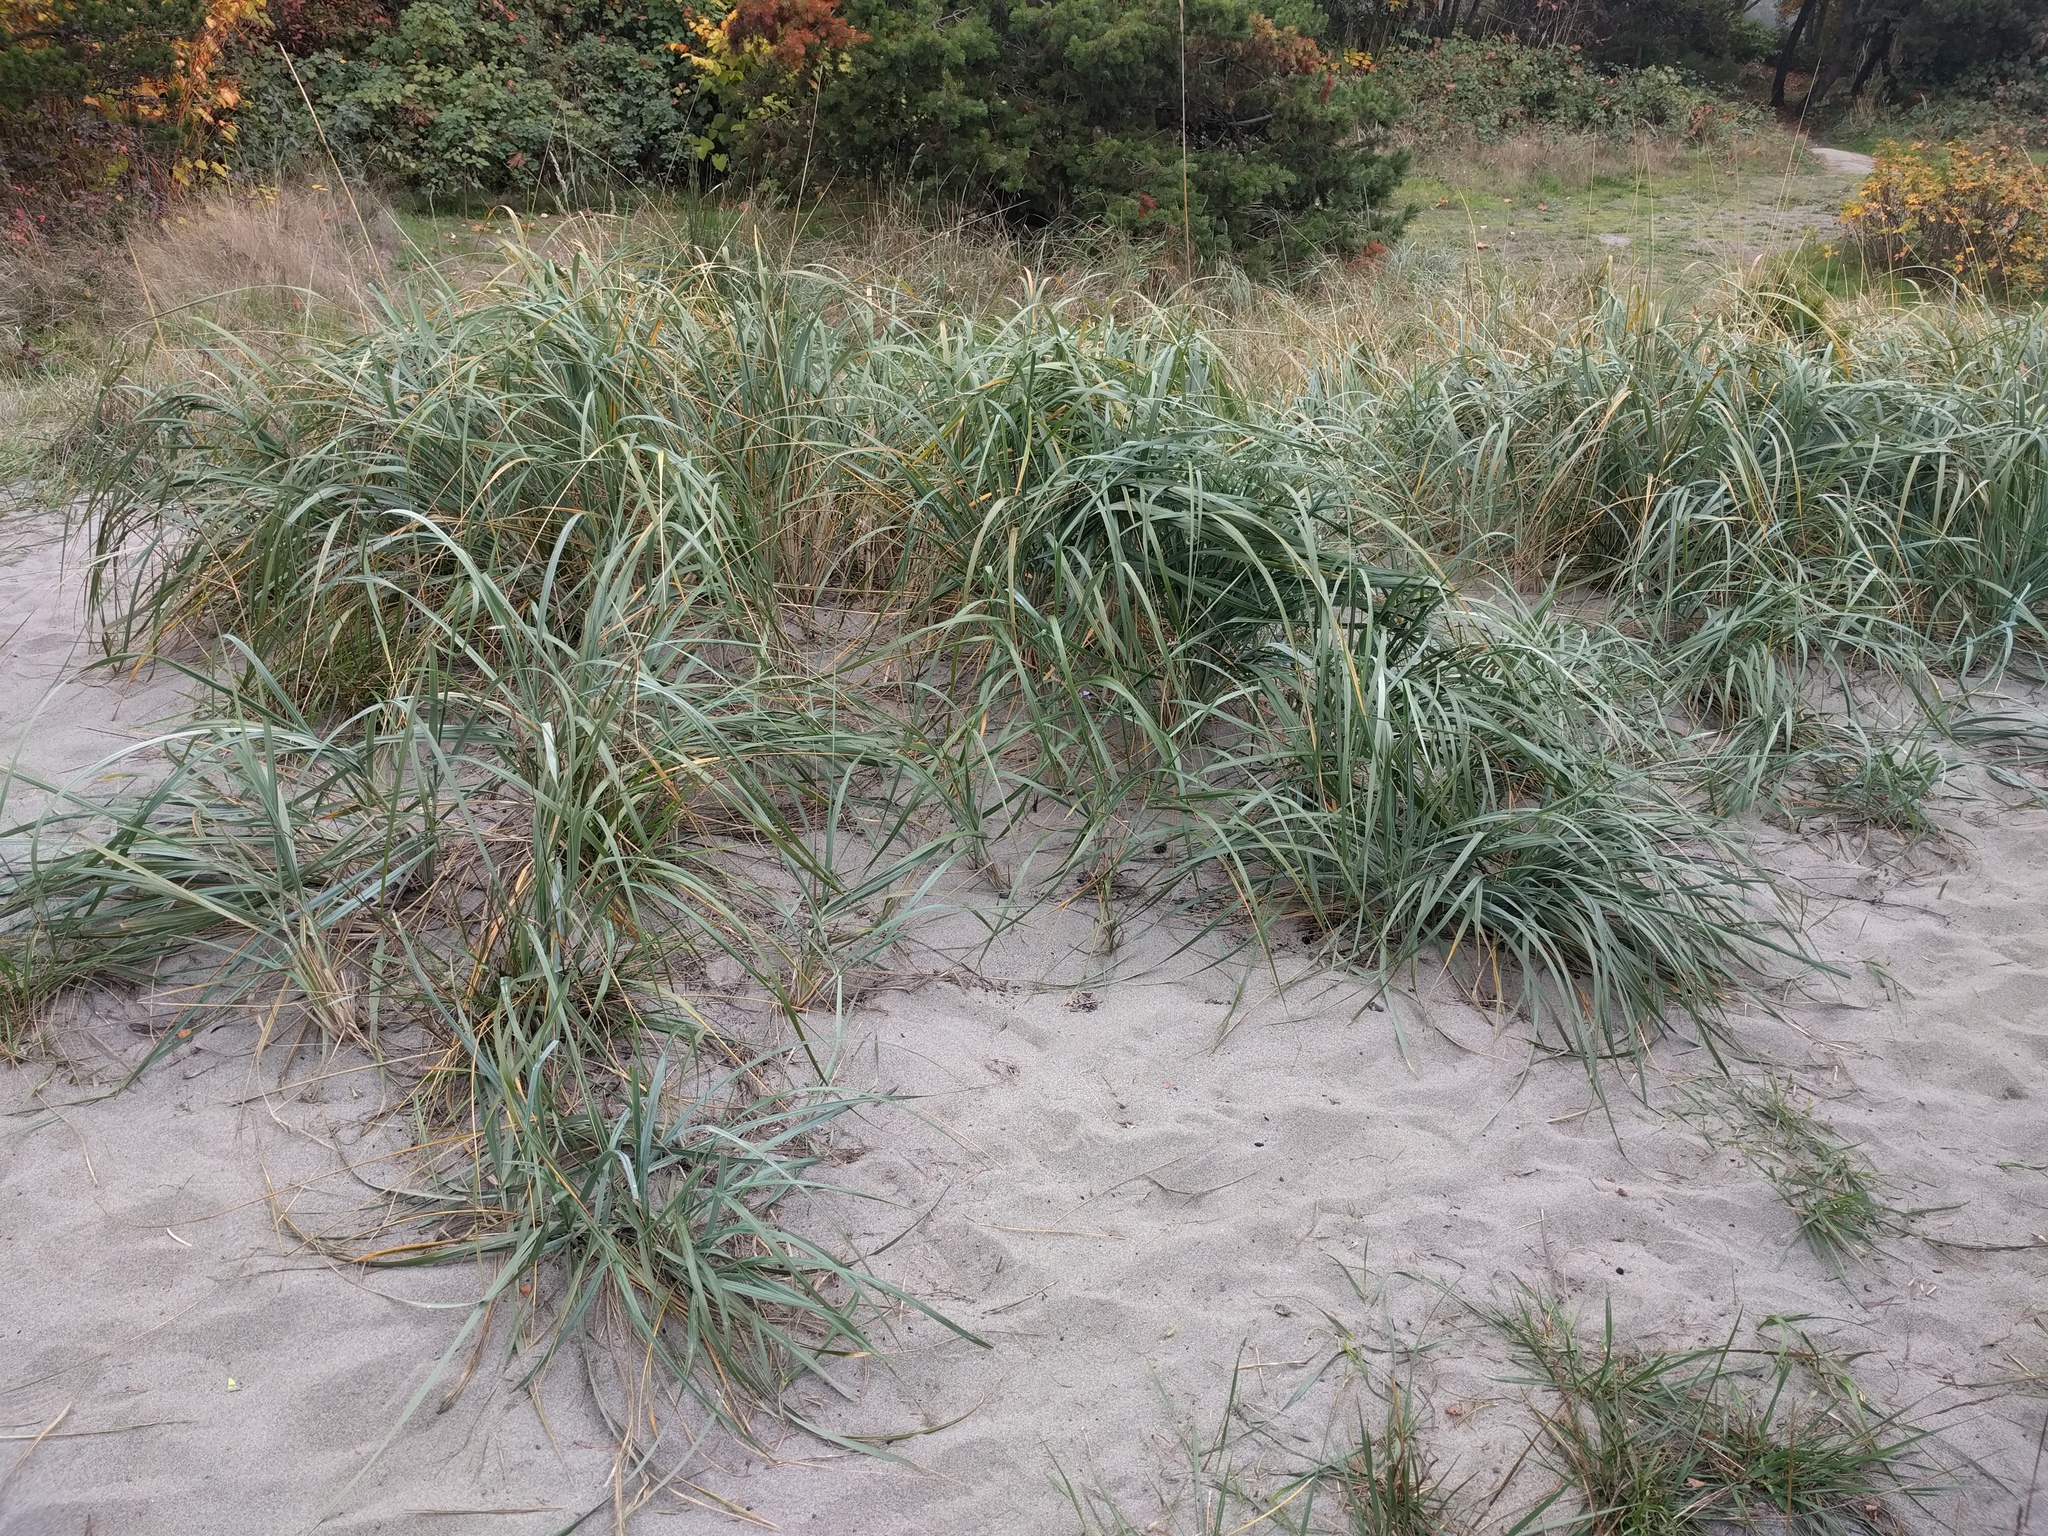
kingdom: Plantae
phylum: Tracheophyta
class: Liliopsida
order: Poales
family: Poaceae
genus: Leymus
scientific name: Leymus mollis
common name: American dune grass
